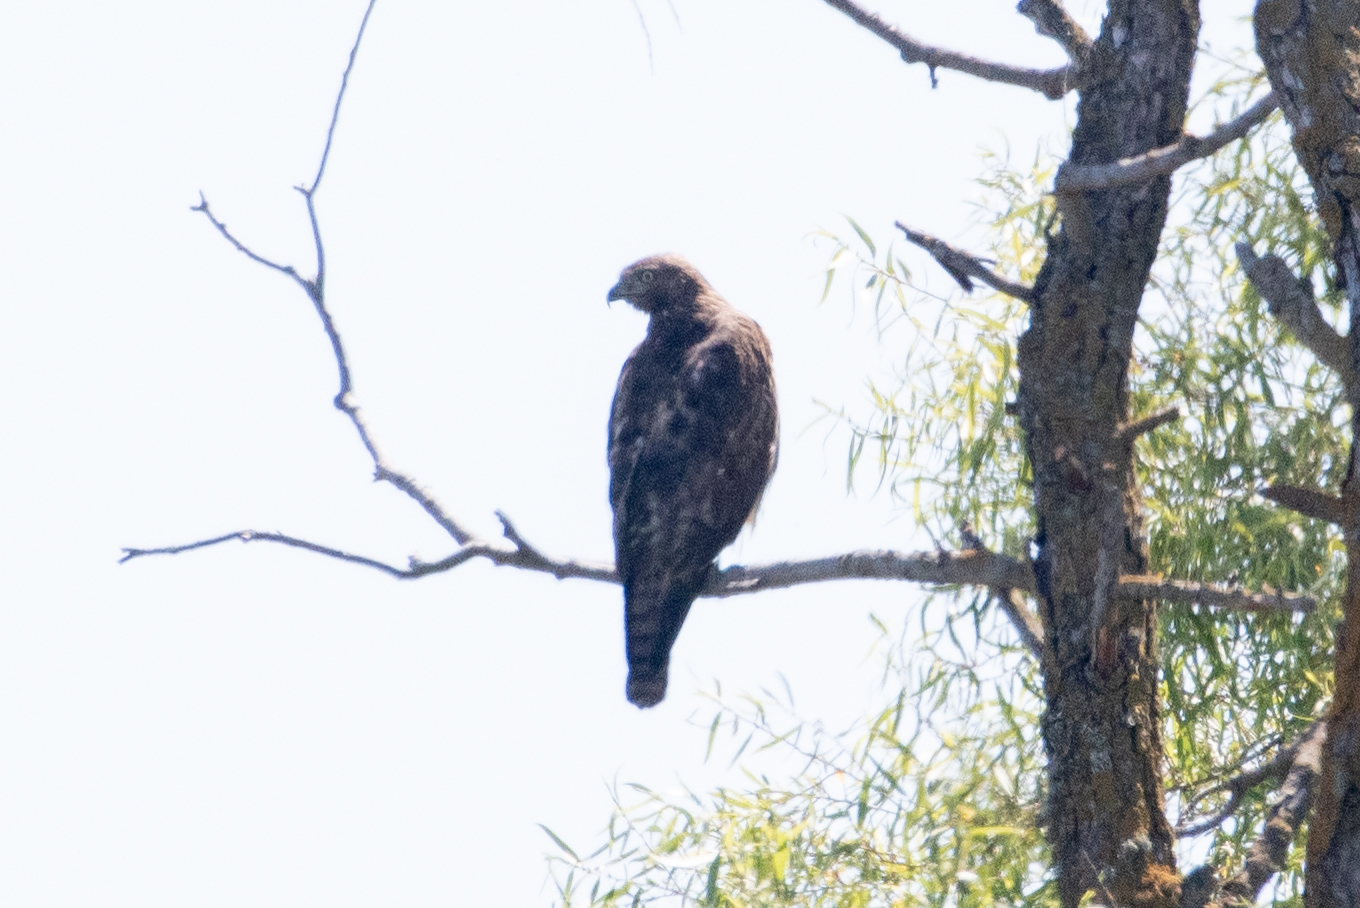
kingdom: Animalia
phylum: Chordata
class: Aves
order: Accipitriformes
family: Accipitridae
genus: Buteo
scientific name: Buteo jamaicensis
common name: Red-tailed hawk
